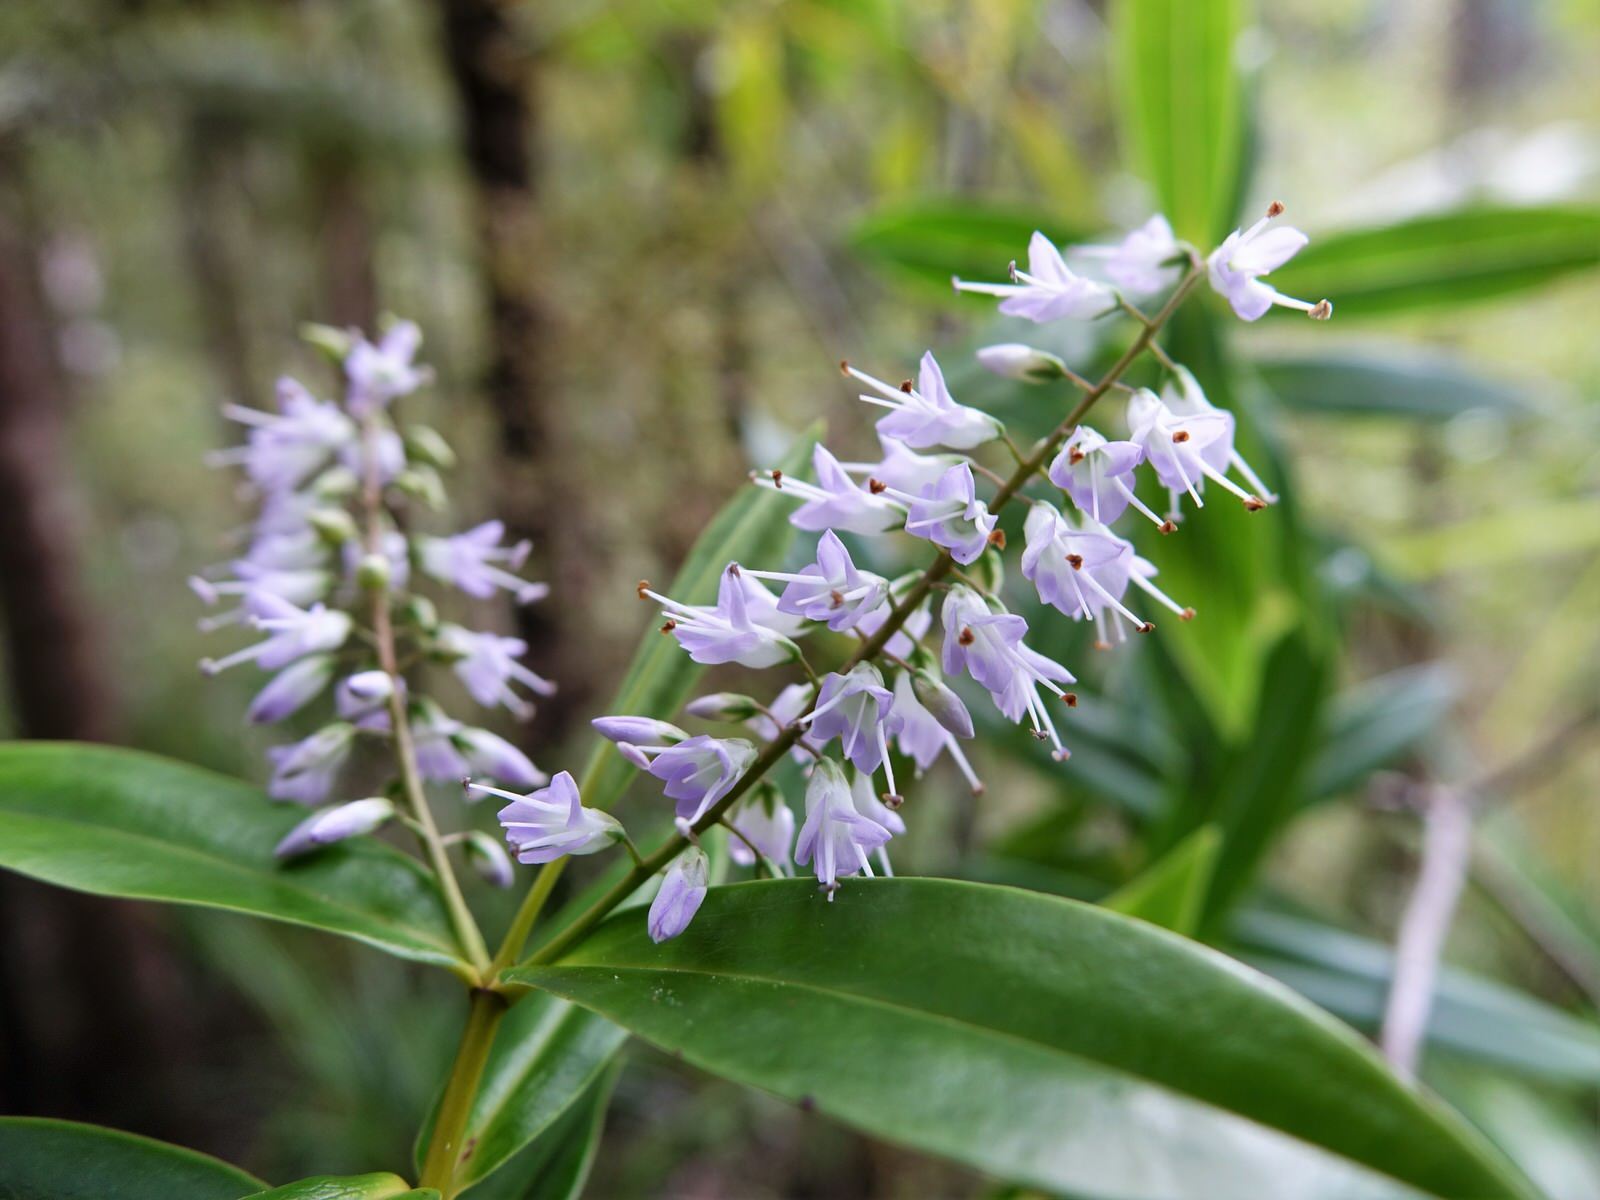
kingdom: Plantae
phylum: Tracheophyta
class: Magnoliopsida
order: Lamiales
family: Plantaginaceae
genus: Veronica
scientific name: Veronica macrocarpa
